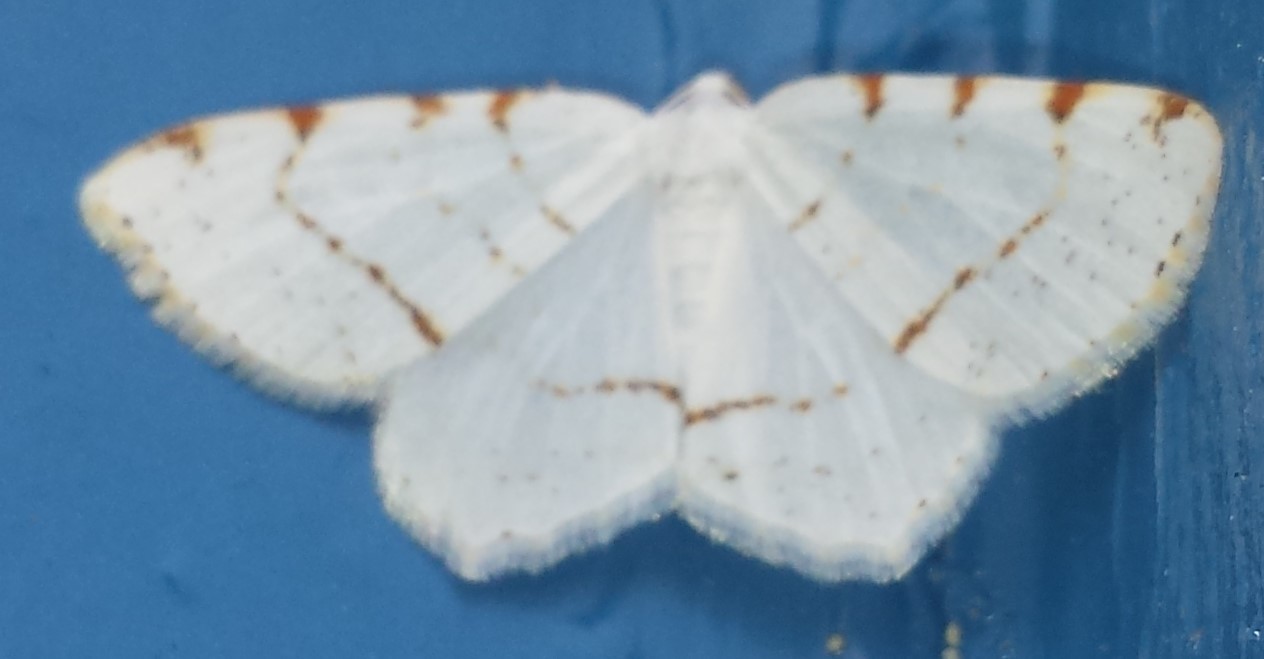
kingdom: Animalia
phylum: Arthropoda
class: Insecta
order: Lepidoptera
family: Geometridae
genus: Macaria
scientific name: Macaria pustularia
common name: Lesser maple spanworm moth
